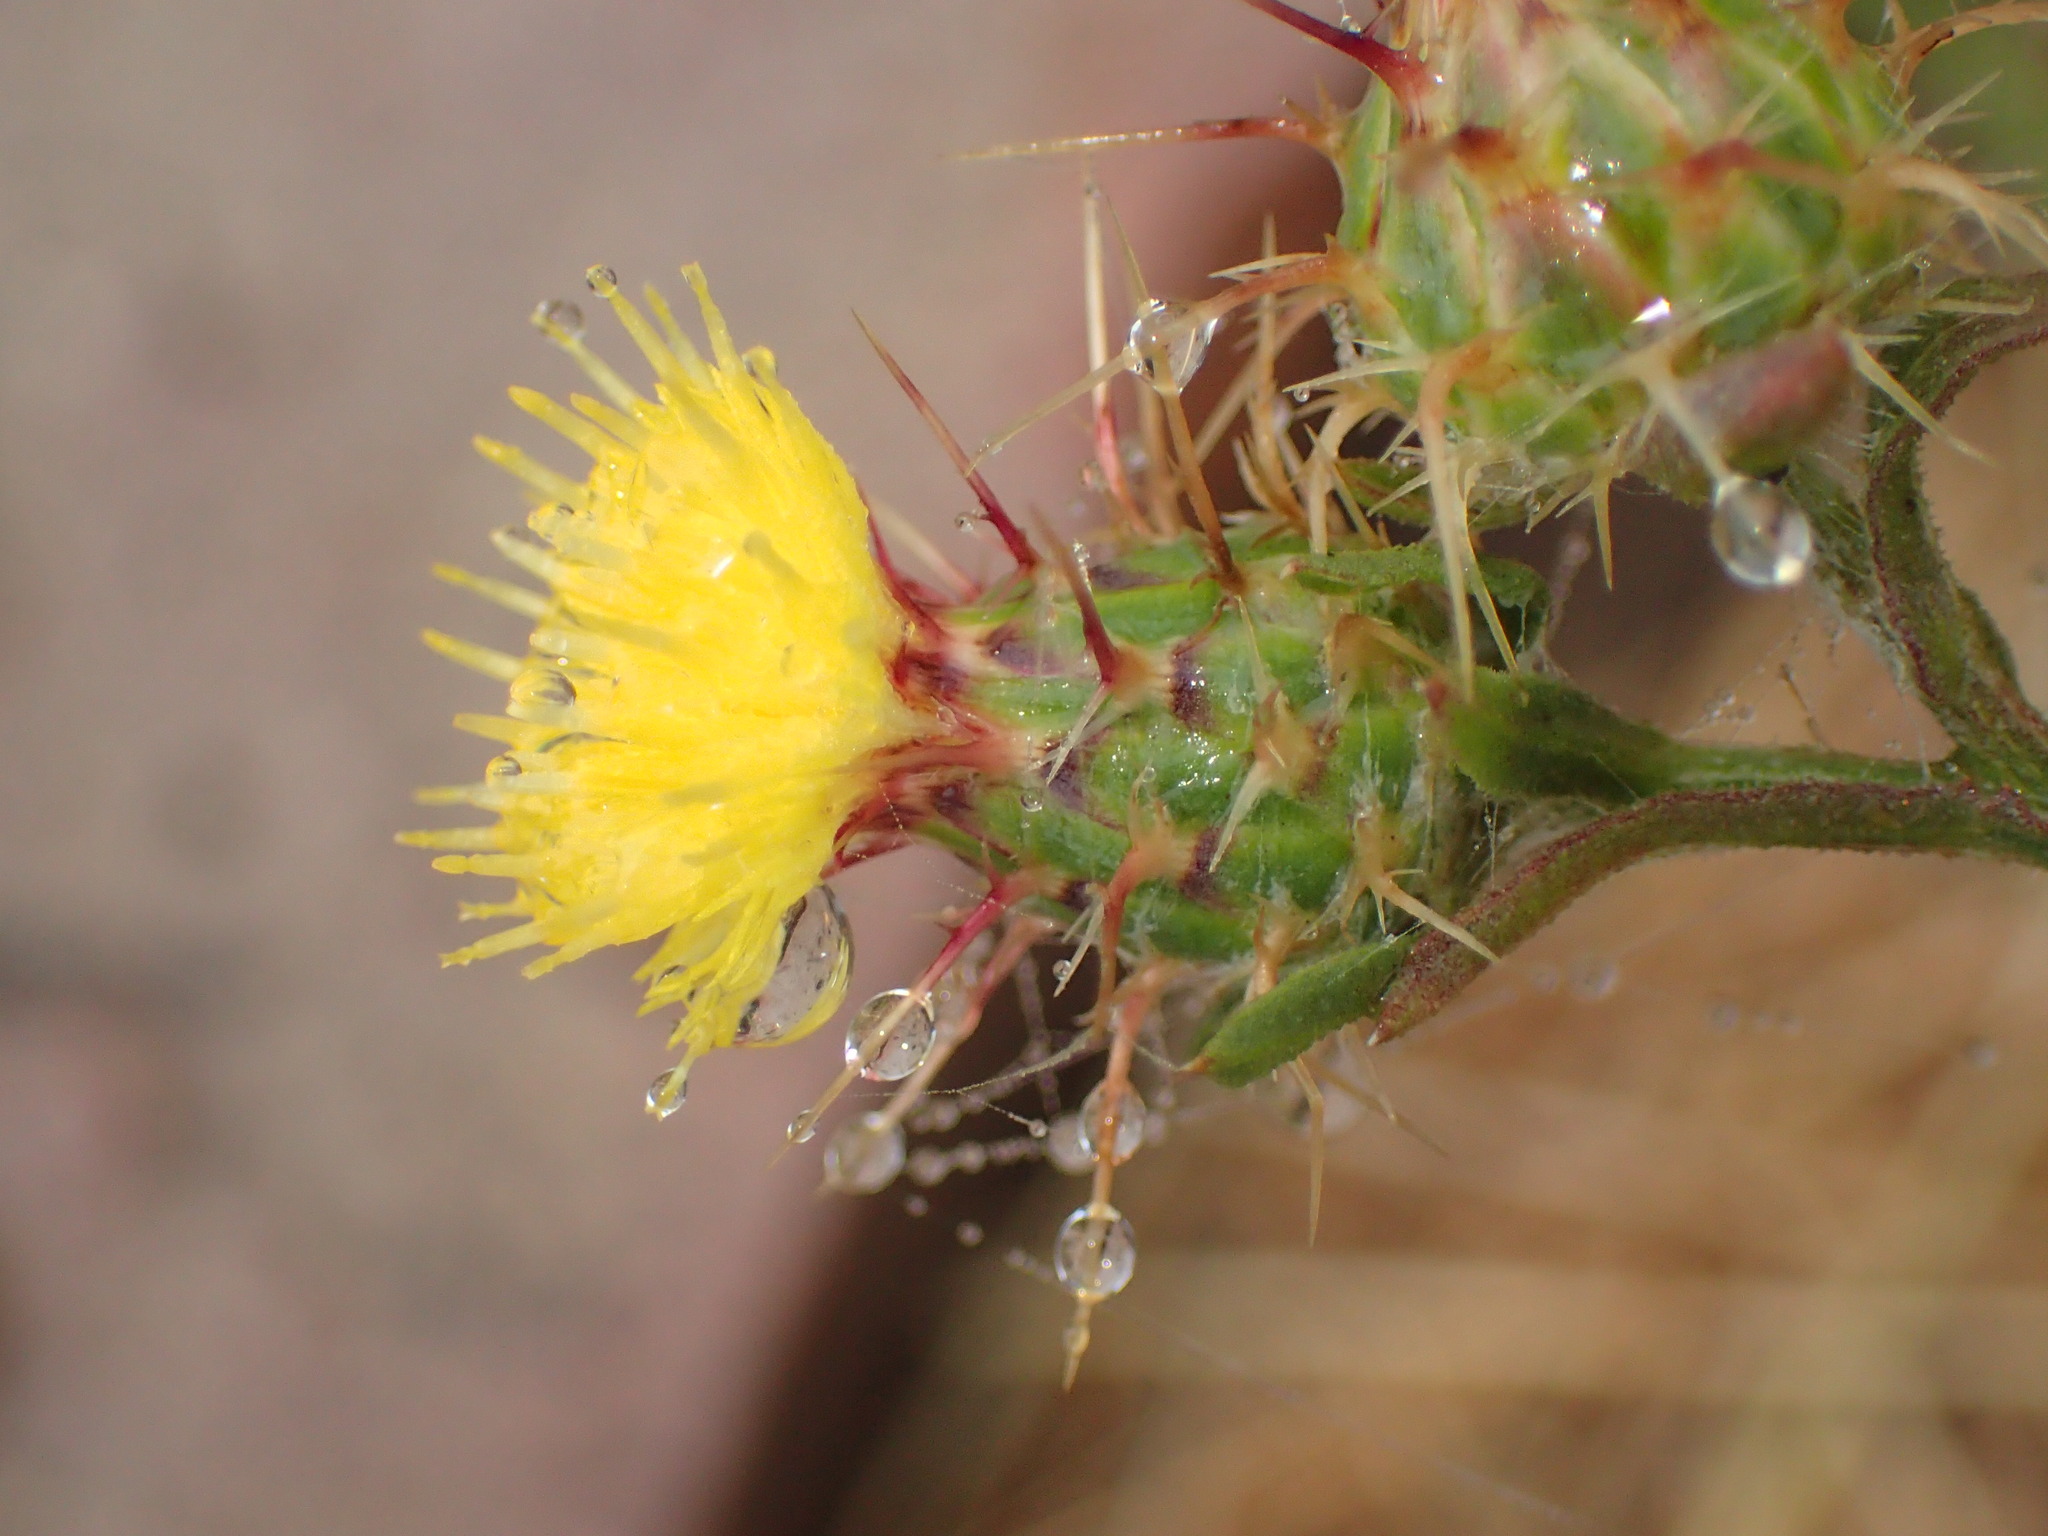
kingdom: Plantae
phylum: Tracheophyta
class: Magnoliopsida
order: Asterales
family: Asteraceae
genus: Centaurea
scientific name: Centaurea melitensis
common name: Maltese star-thistle
